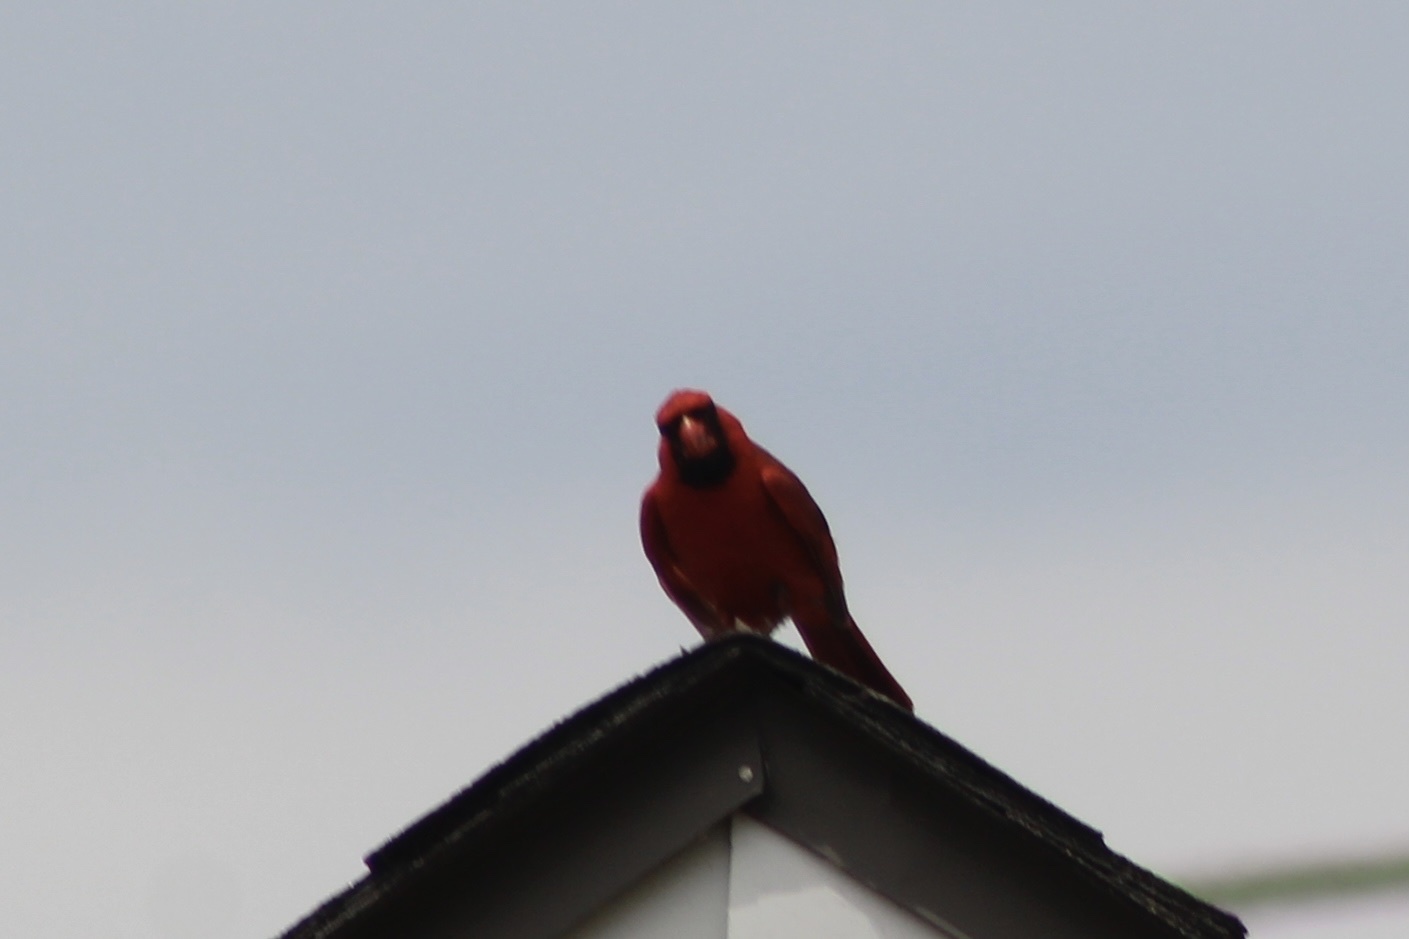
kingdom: Animalia
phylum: Chordata
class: Aves
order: Passeriformes
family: Cardinalidae
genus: Cardinalis
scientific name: Cardinalis cardinalis
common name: Northern cardinal
